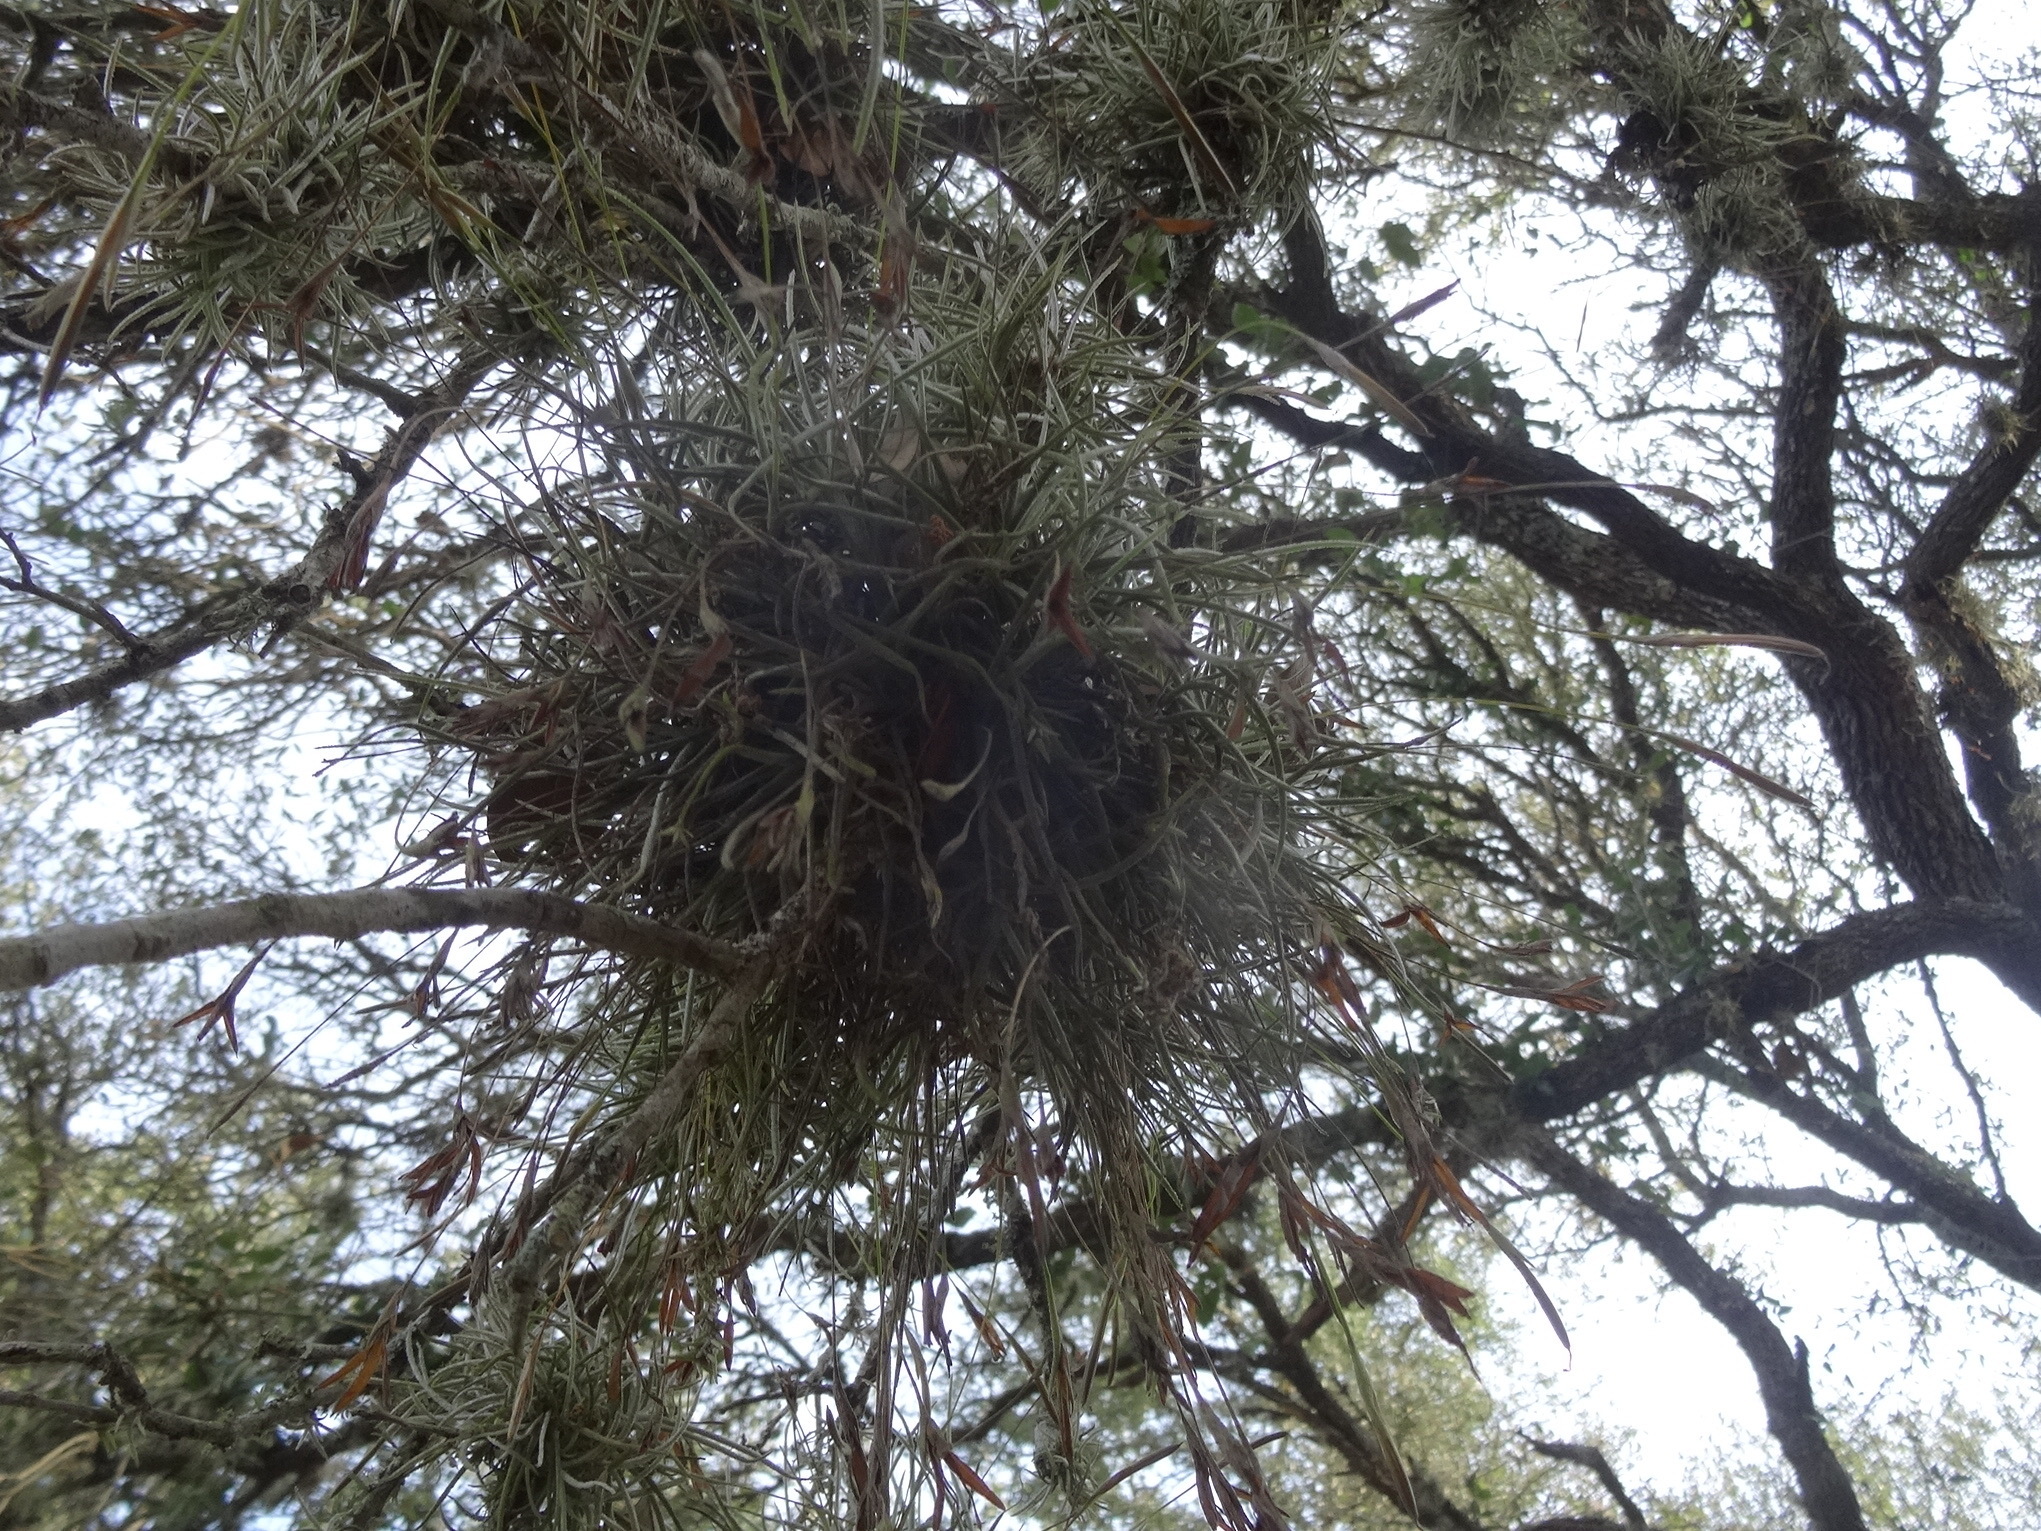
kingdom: Plantae
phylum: Tracheophyta
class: Liliopsida
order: Poales
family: Bromeliaceae
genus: Tillandsia
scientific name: Tillandsia recurvata
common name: Small ballmoss
